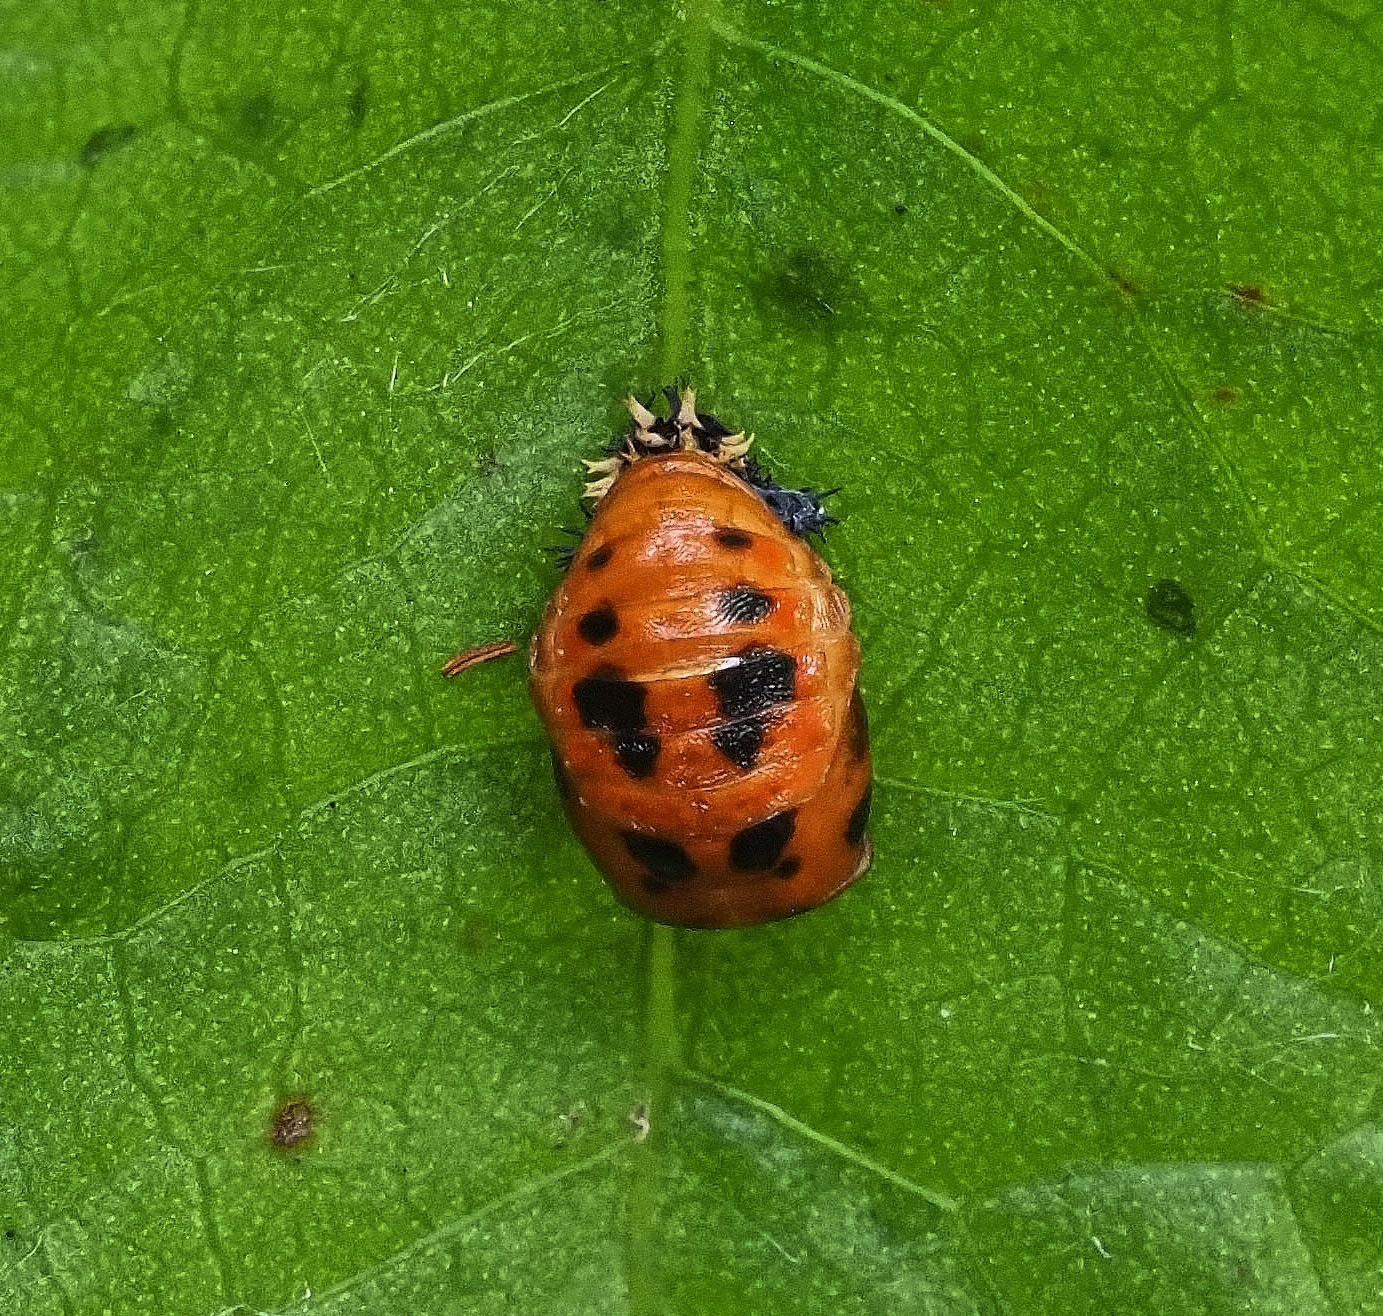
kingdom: Animalia
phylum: Arthropoda
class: Insecta
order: Coleoptera
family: Coccinellidae
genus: Harmonia
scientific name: Harmonia axyridis
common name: Harlequin ladybird
